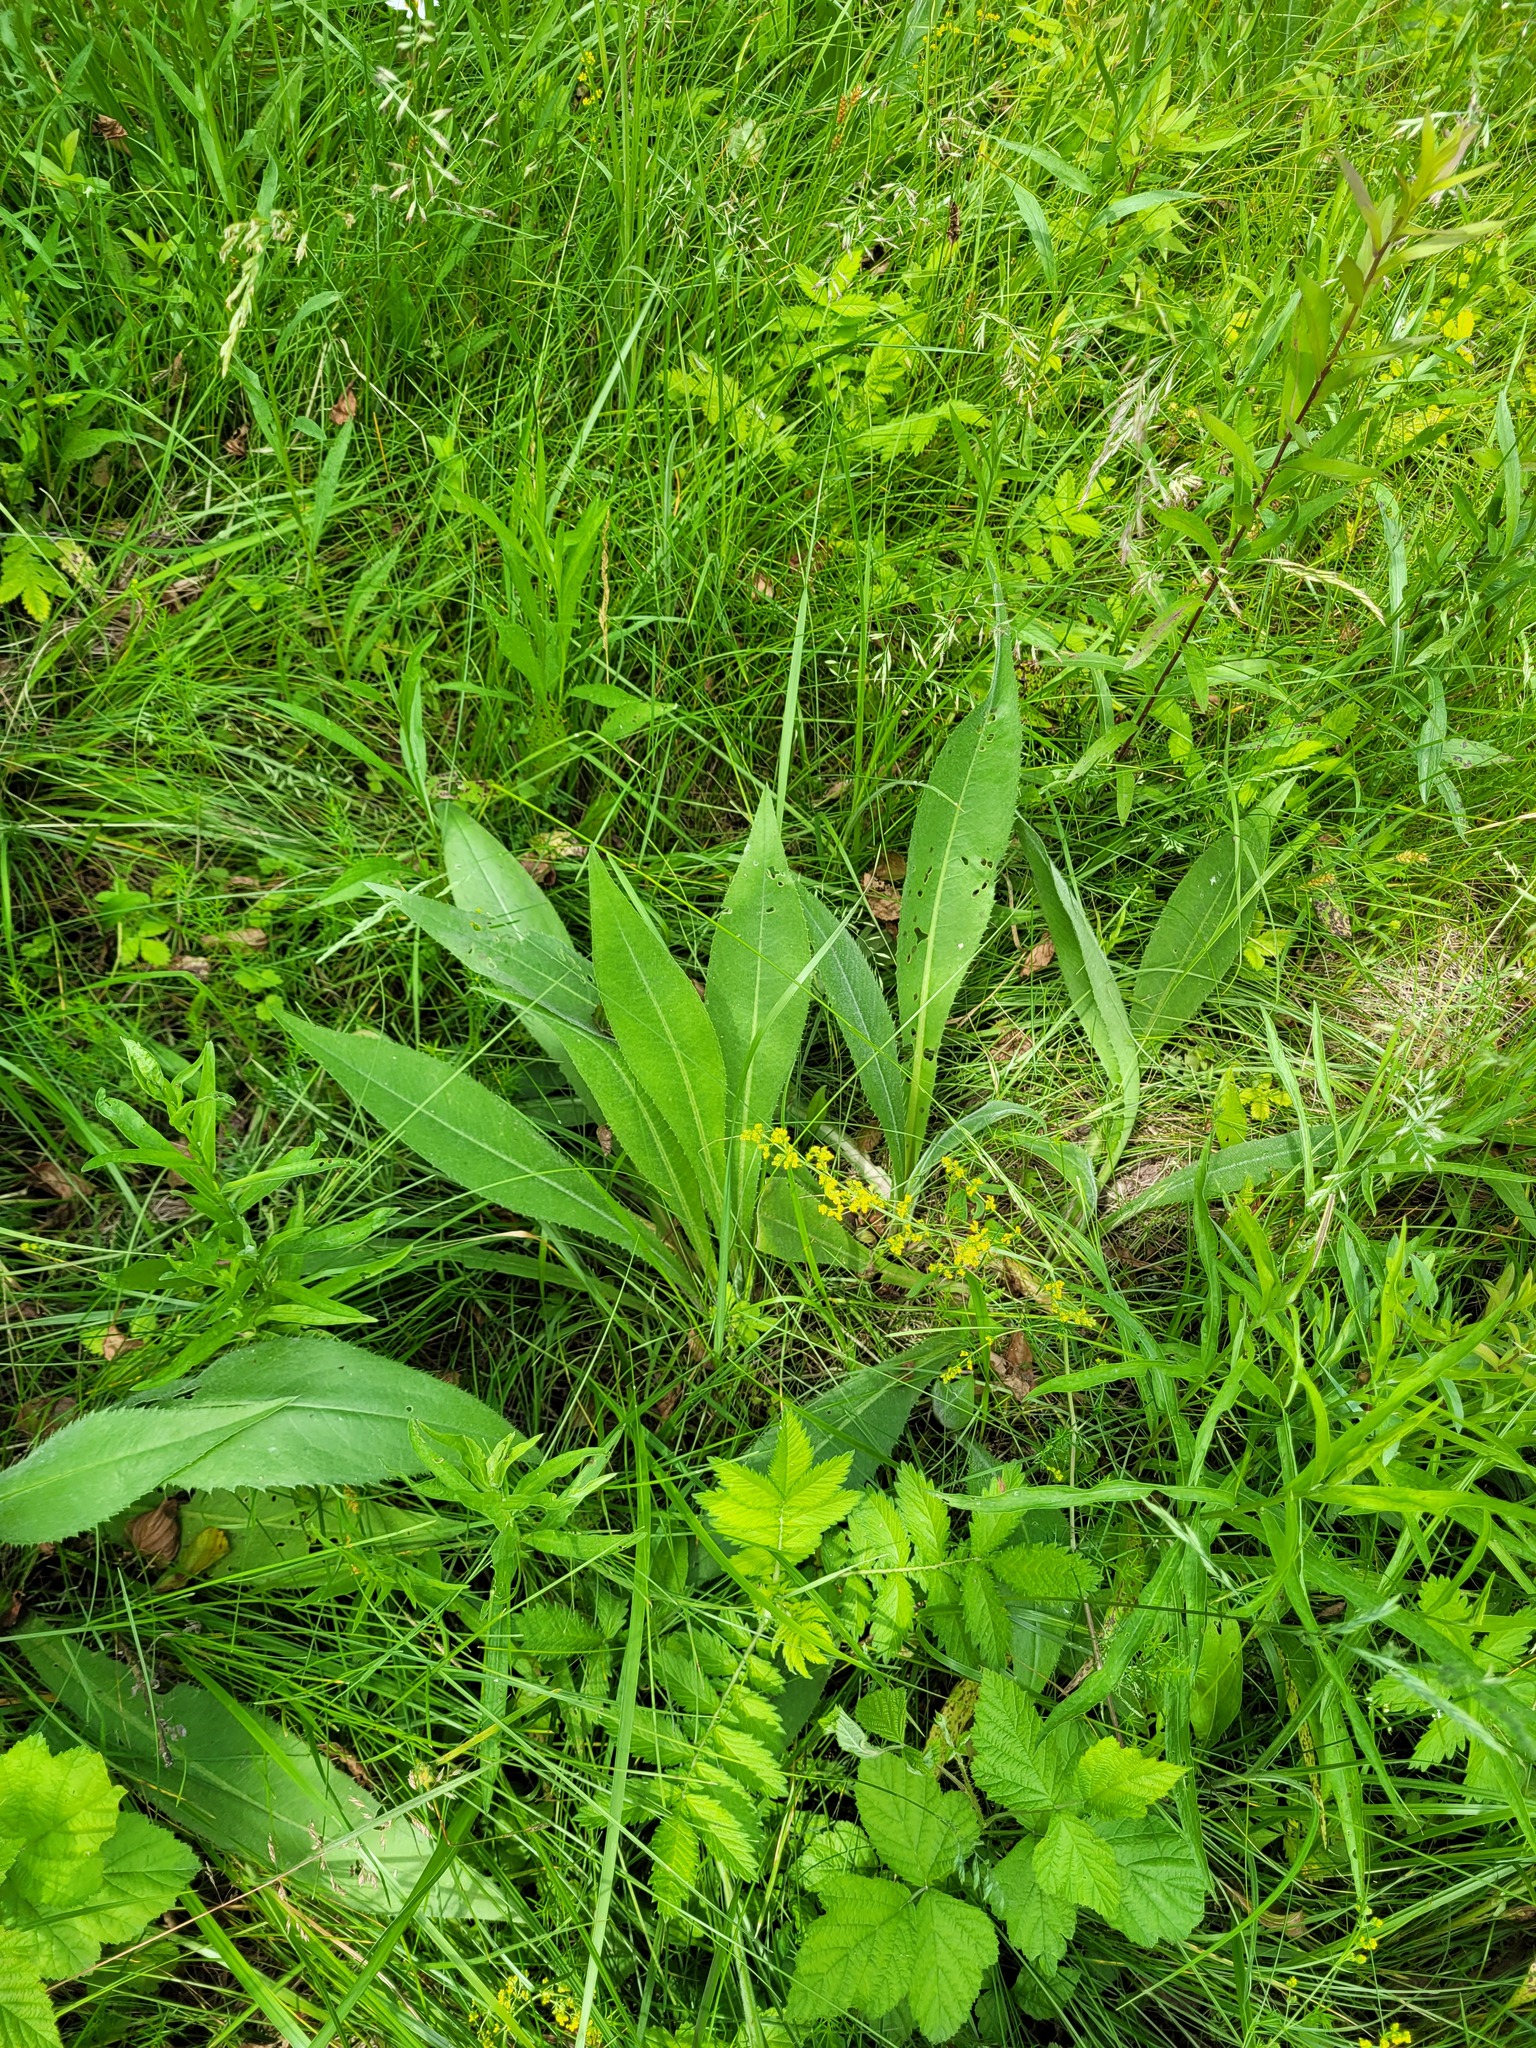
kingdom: Plantae
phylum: Tracheophyta
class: Magnoliopsida
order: Asterales
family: Asteraceae
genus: Cirsium
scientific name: Cirsium canum
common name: Queen anne's thistle
